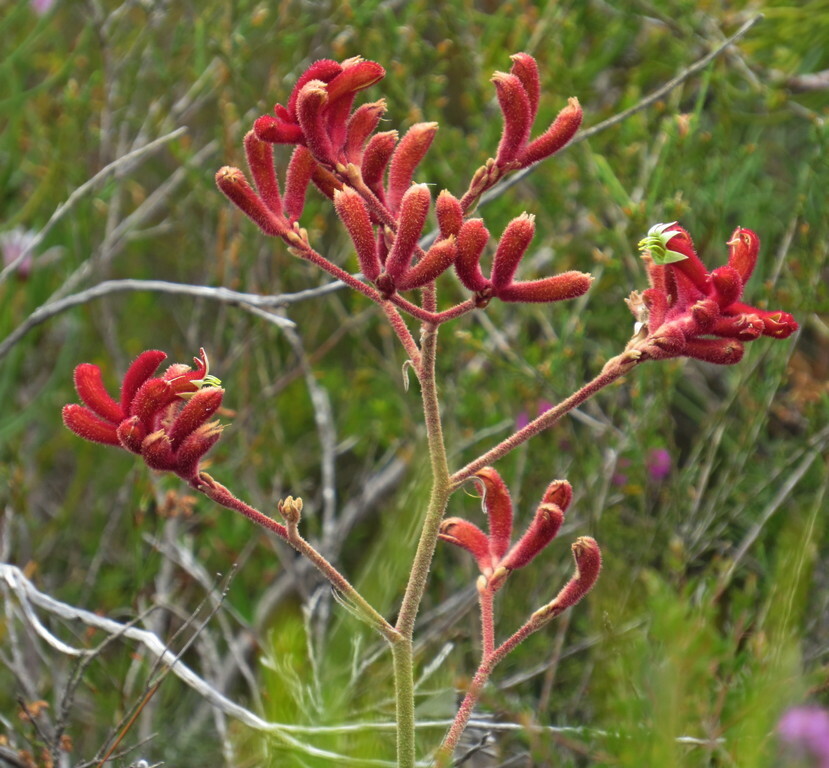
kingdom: Plantae
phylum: Tracheophyta
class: Liliopsida
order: Commelinales
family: Haemodoraceae
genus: Anigozanthos
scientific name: Anigozanthos rufus
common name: Red kangaroo-paw
